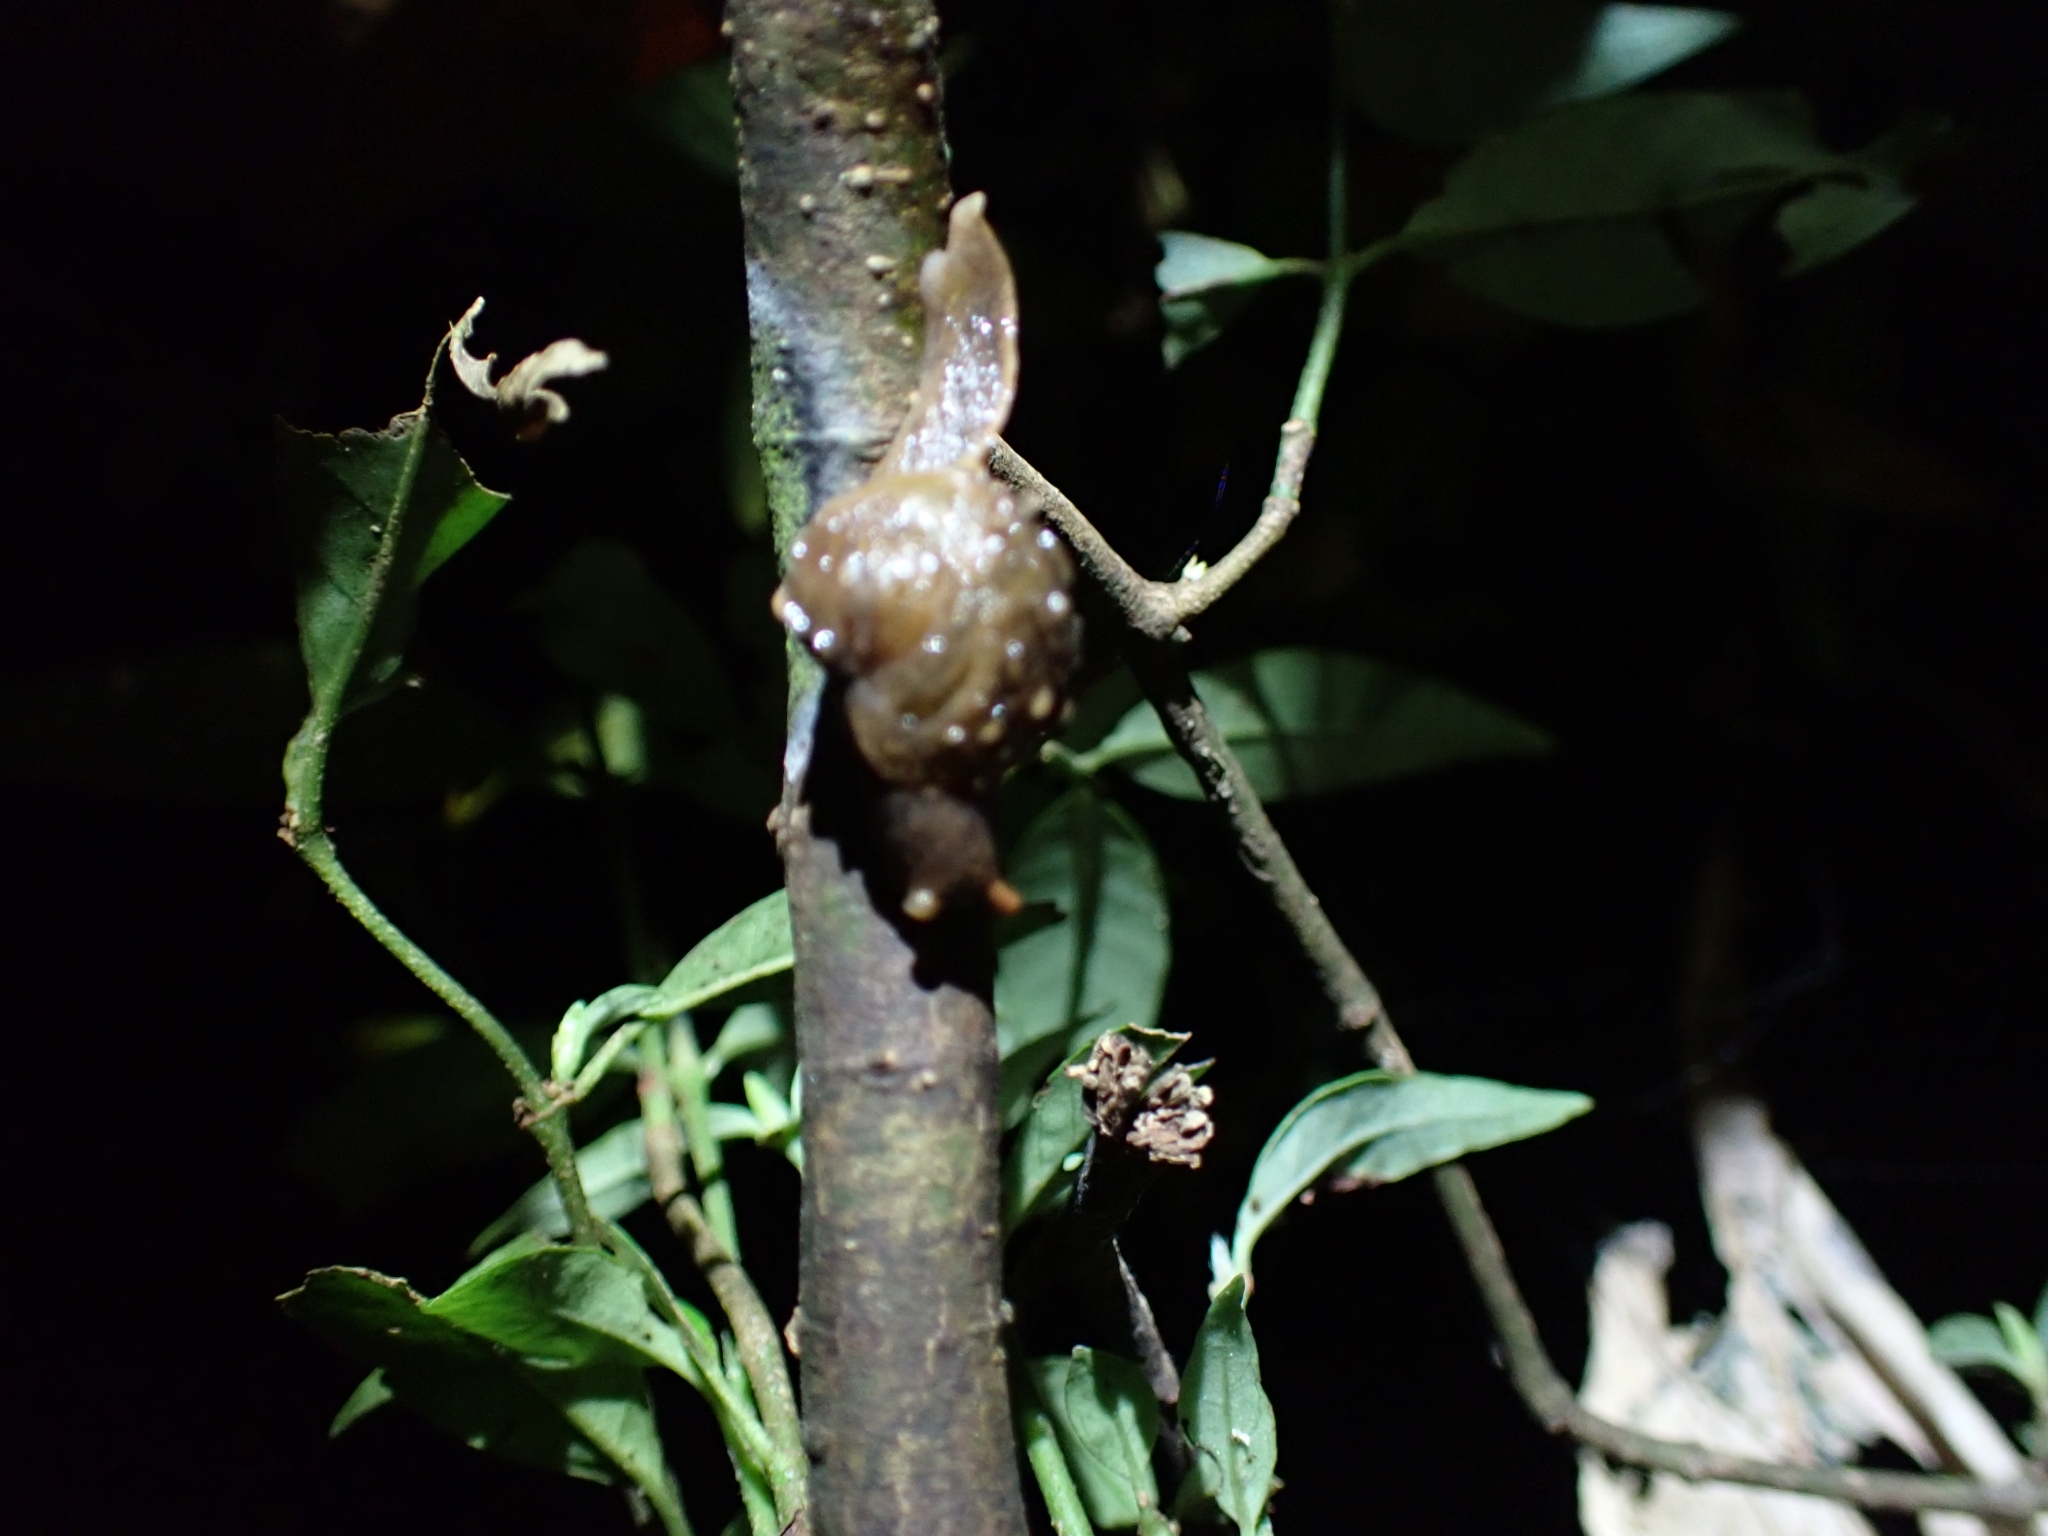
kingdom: Animalia
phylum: Mollusca
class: Gastropoda
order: Stylommatophora
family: Helicarionidae
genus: Fastosarion
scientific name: Fastosarion brazieri
